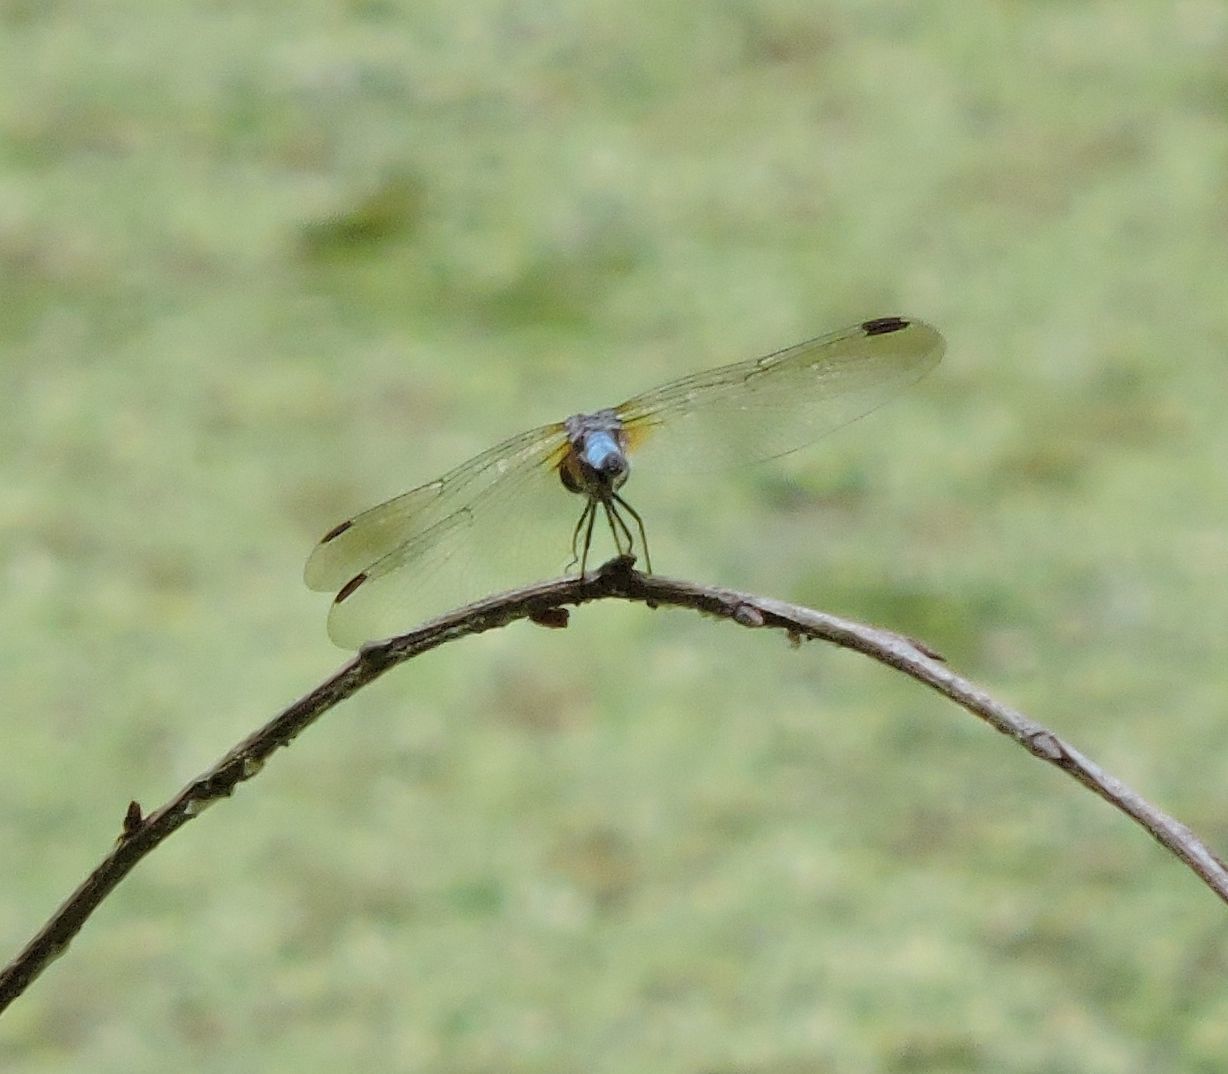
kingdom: Animalia
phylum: Arthropoda
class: Insecta
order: Odonata
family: Libellulidae
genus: Pachydiplax
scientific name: Pachydiplax longipennis
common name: Blue dasher
